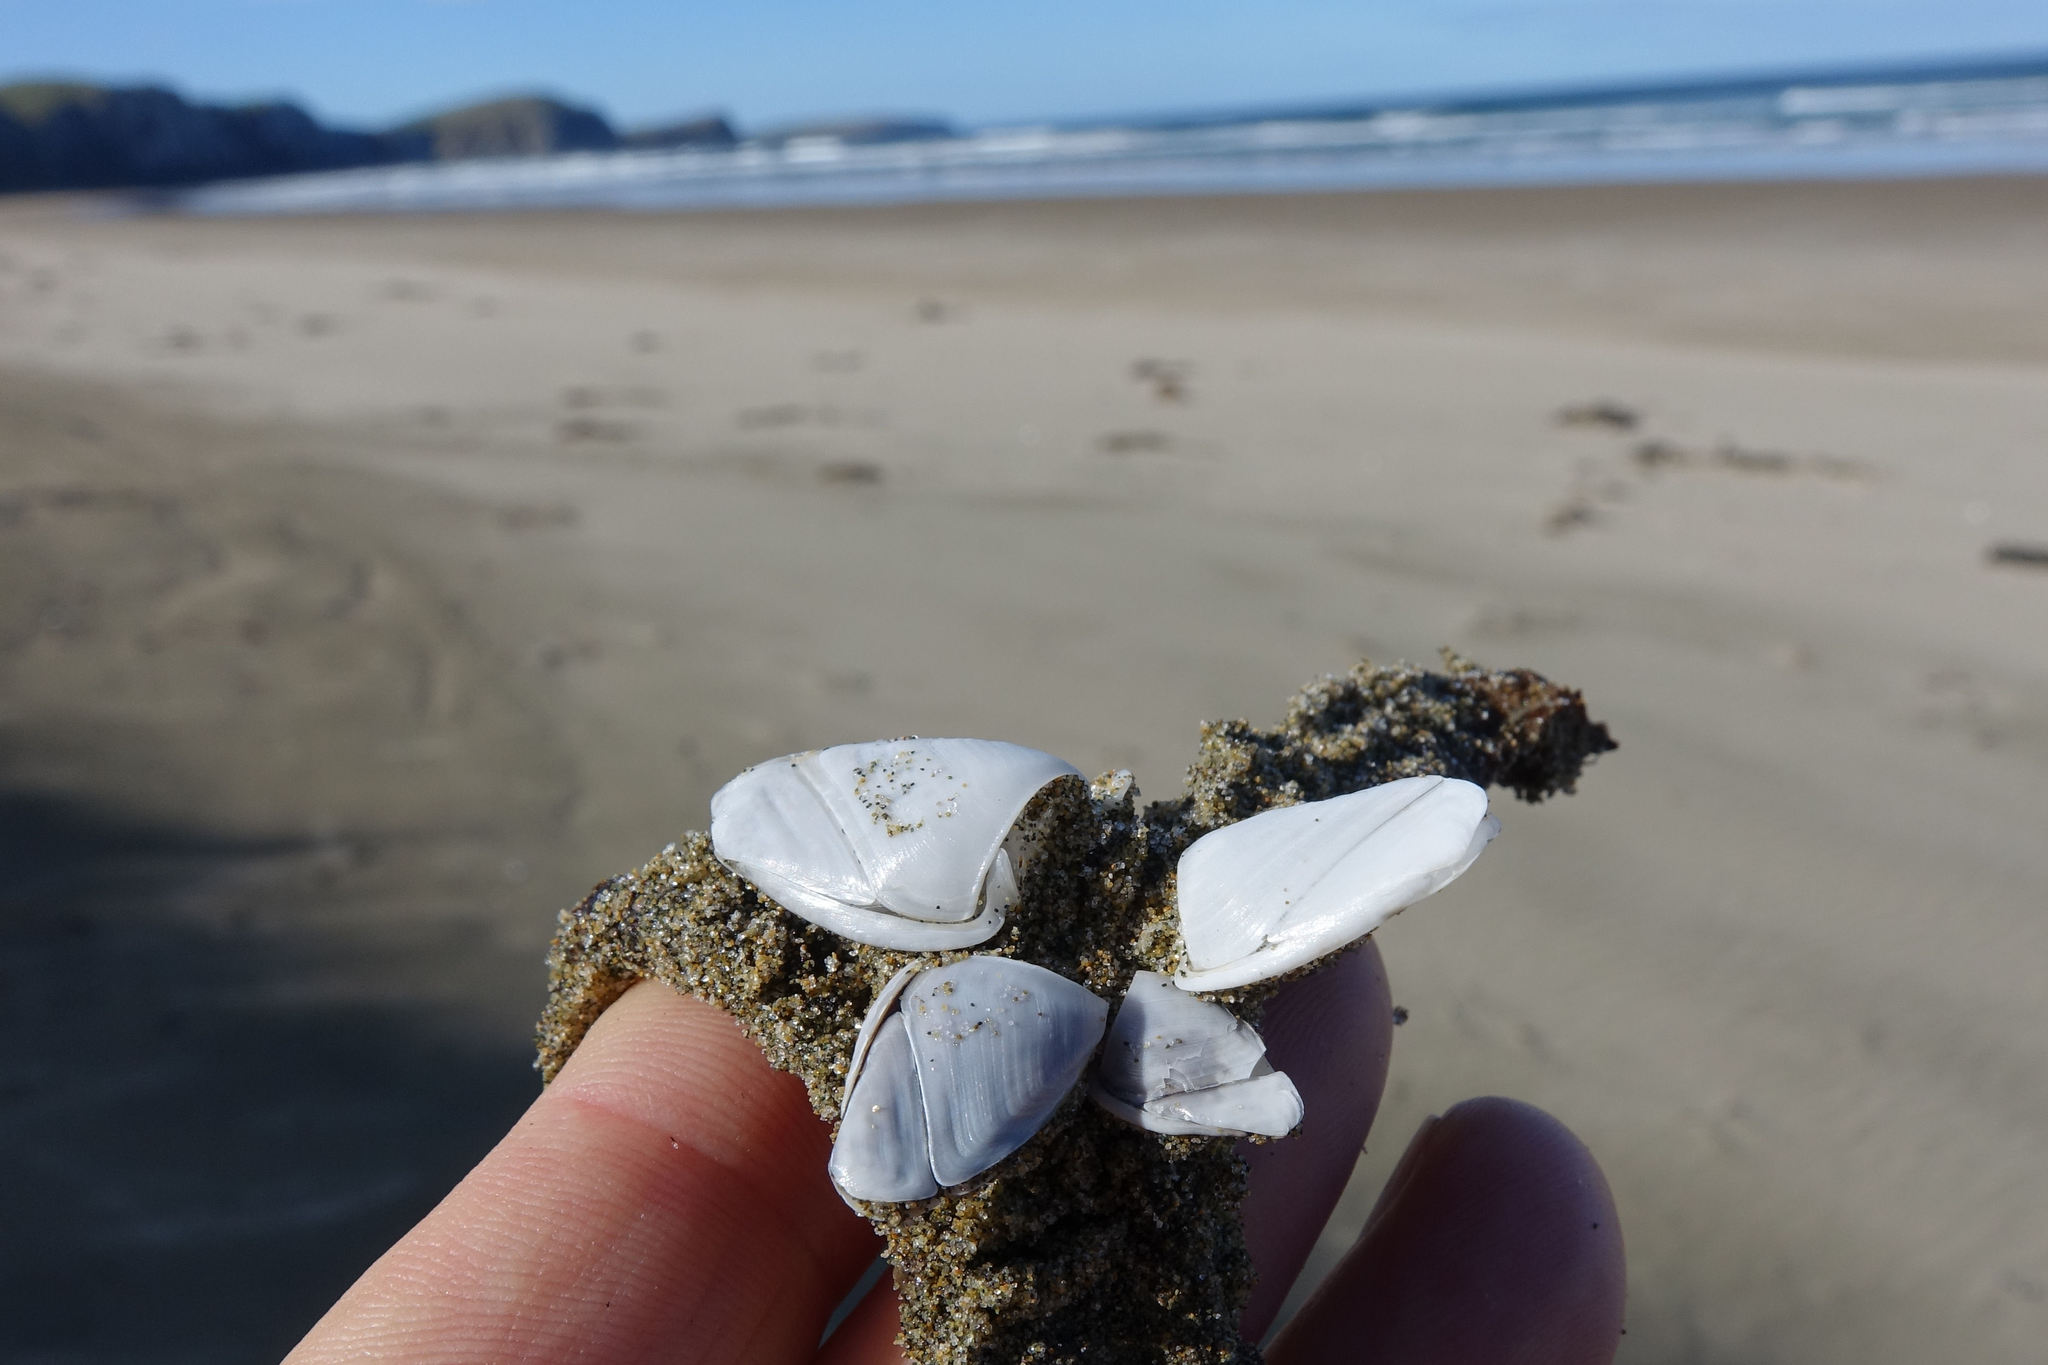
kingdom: Animalia
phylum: Arthropoda
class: Maxillopoda
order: Pedunculata
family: Lepadidae
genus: Lepas
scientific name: Lepas australis
